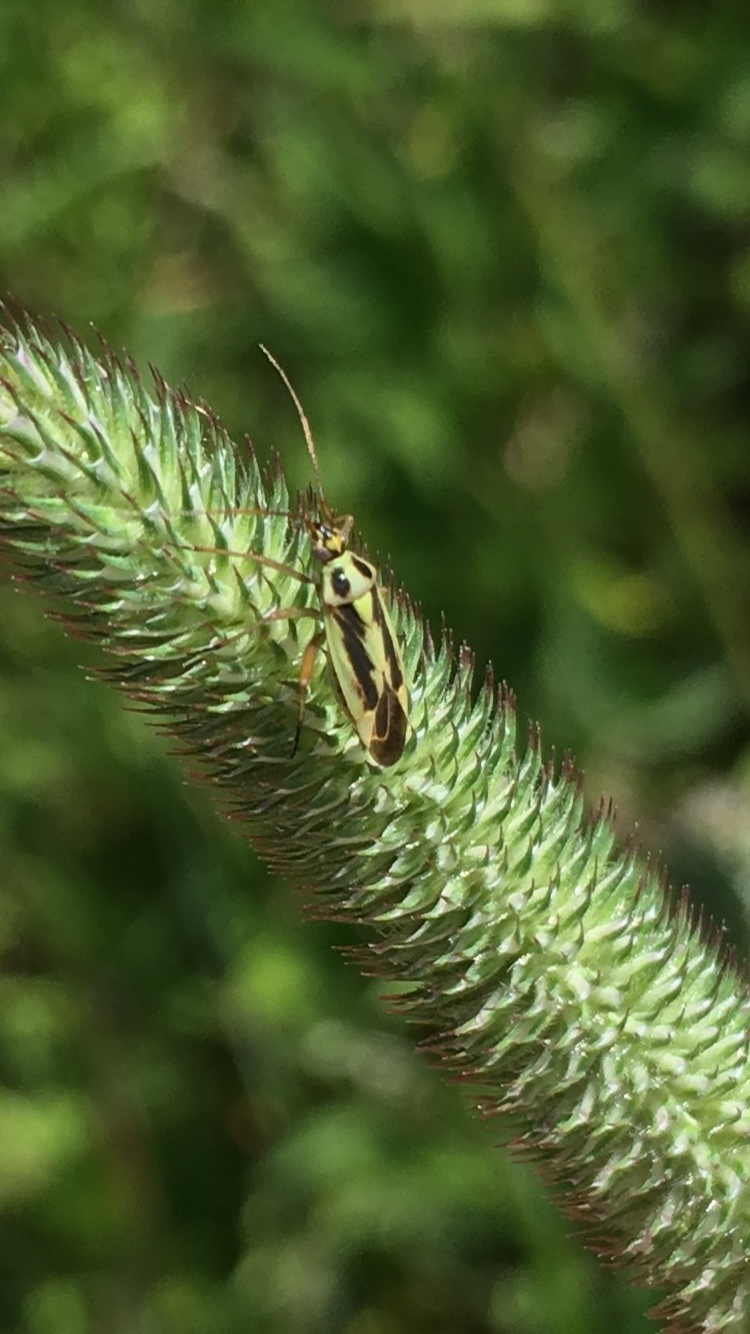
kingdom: Animalia
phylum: Arthropoda
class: Insecta
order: Hemiptera
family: Miridae
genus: Stenotus
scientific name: Stenotus binotatus
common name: Plant bug
